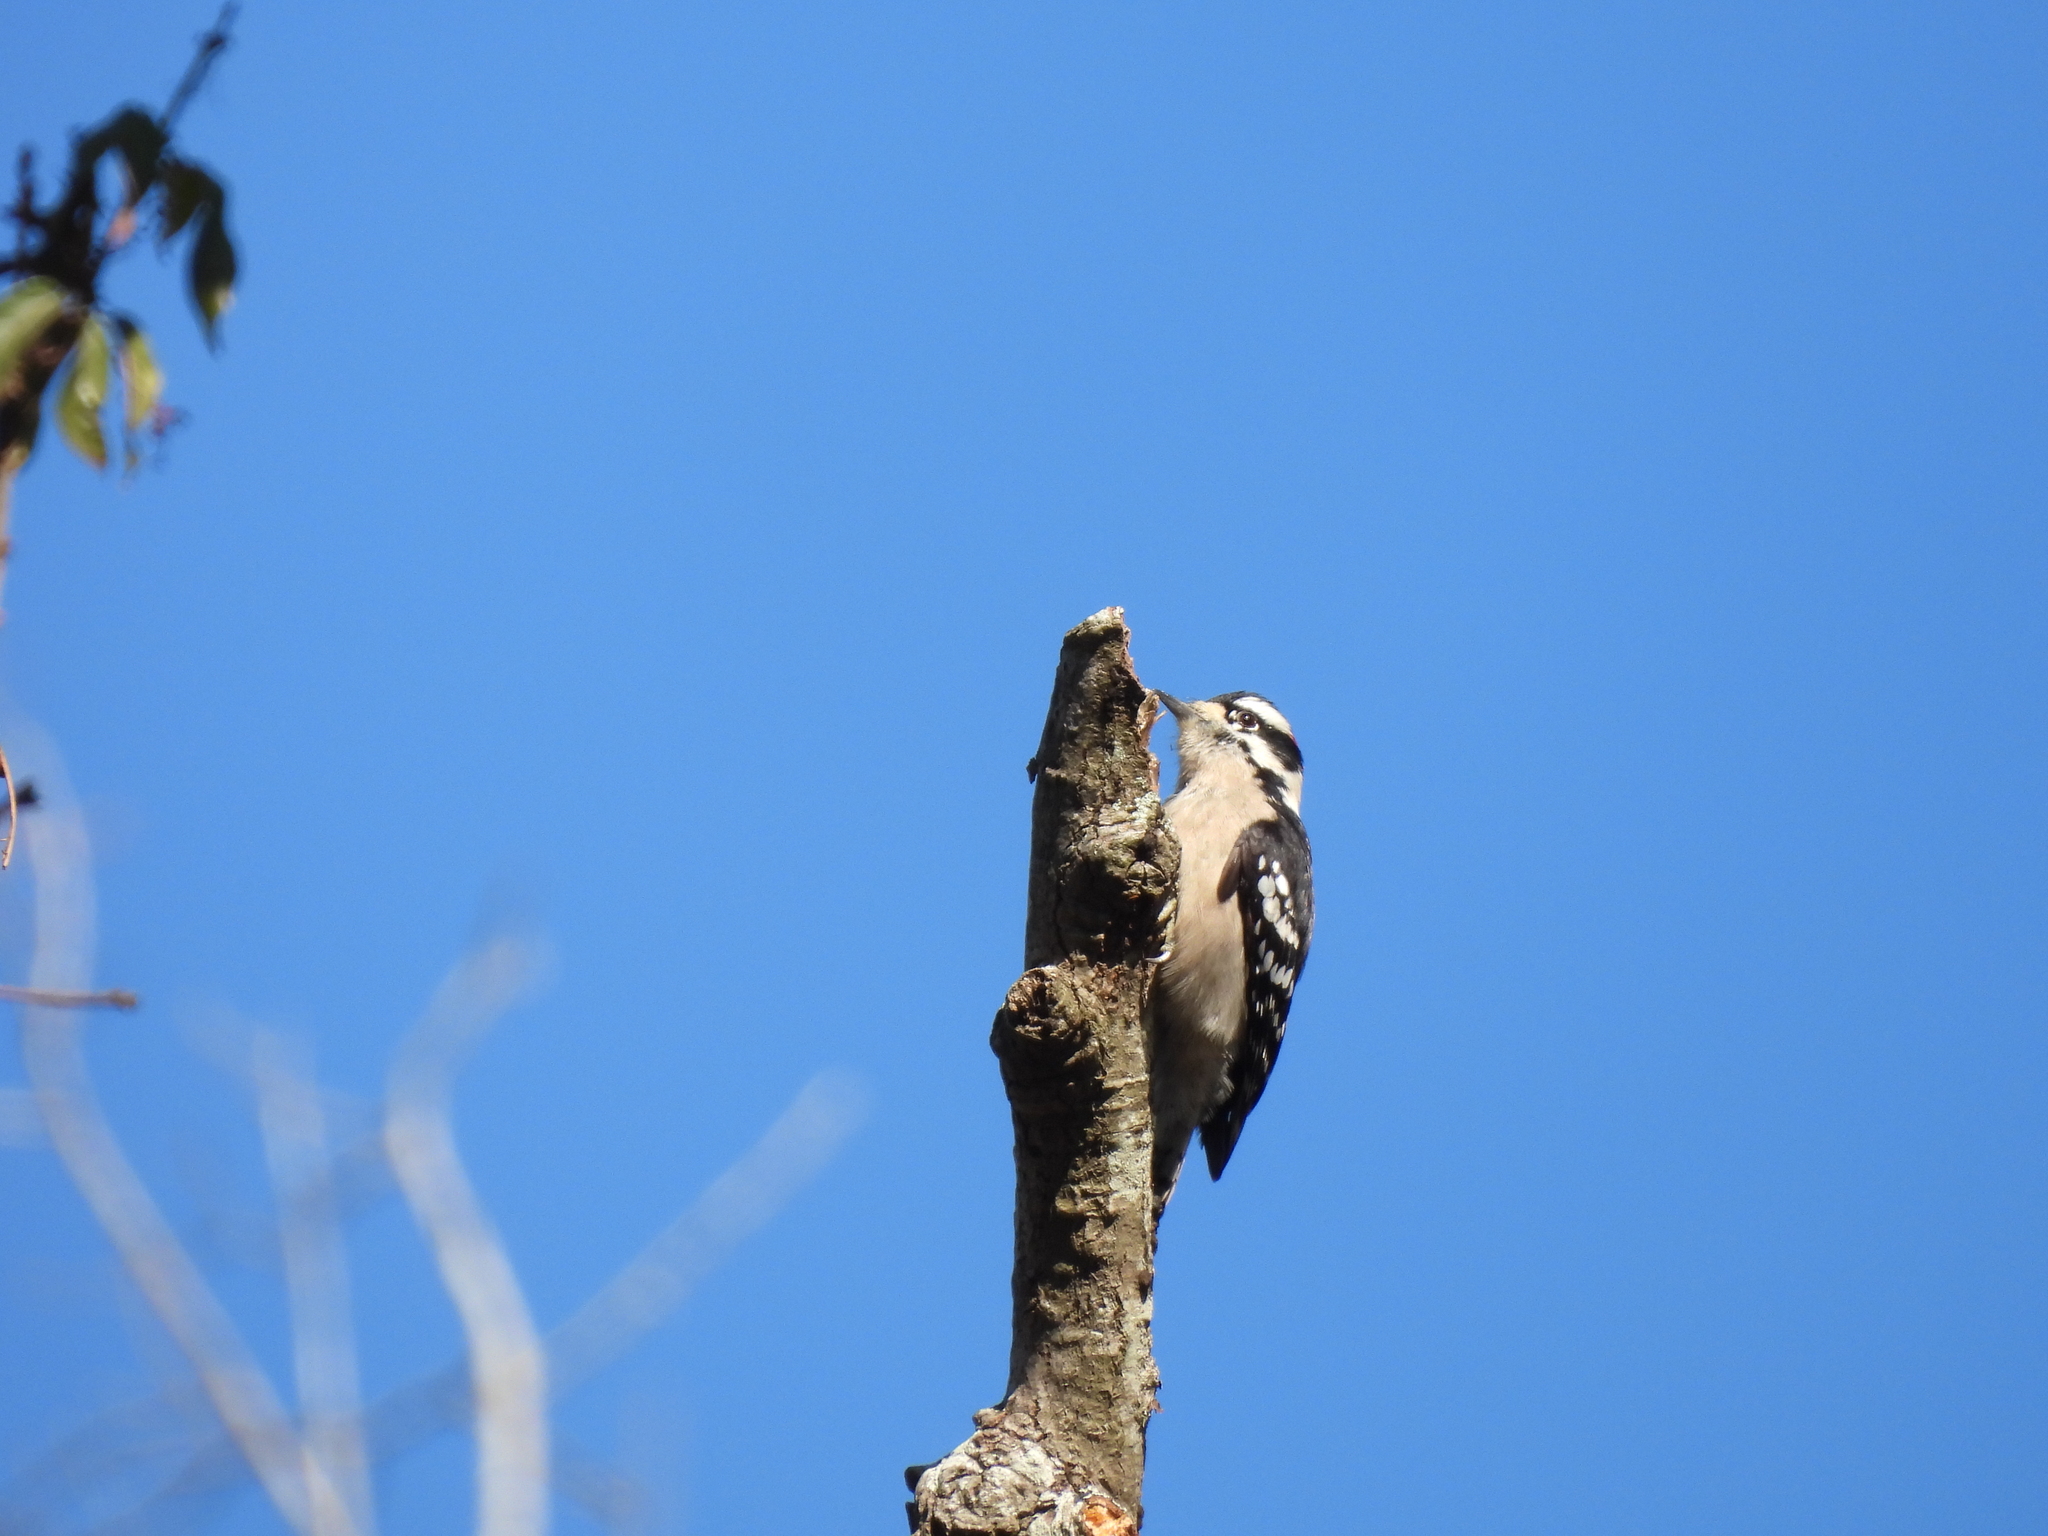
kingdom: Animalia
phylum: Chordata
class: Aves
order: Piciformes
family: Picidae
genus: Dryobates
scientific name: Dryobates pubescens
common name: Downy woodpecker
